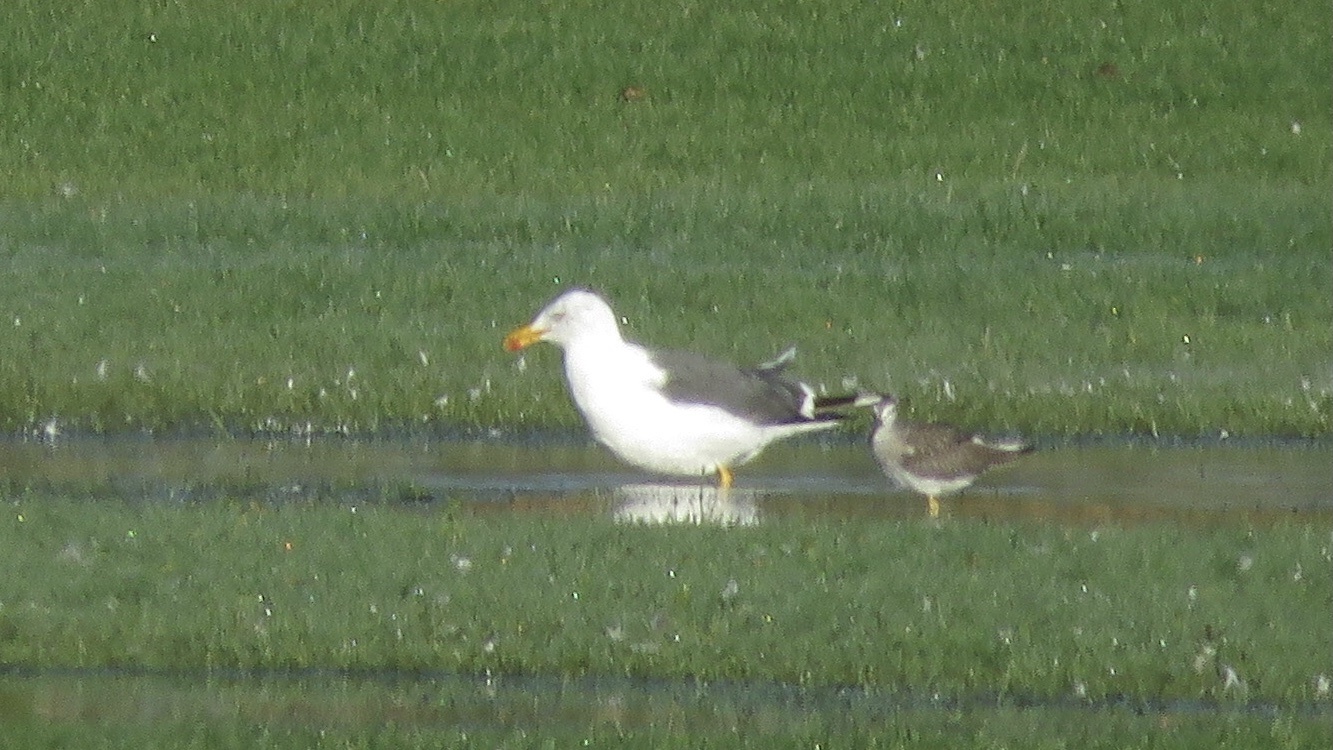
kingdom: Animalia
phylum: Chordata
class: Aves
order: Charadriiformes
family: Laridae
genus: Larus
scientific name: Larus fuscus
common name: Lesser black-backed gull
